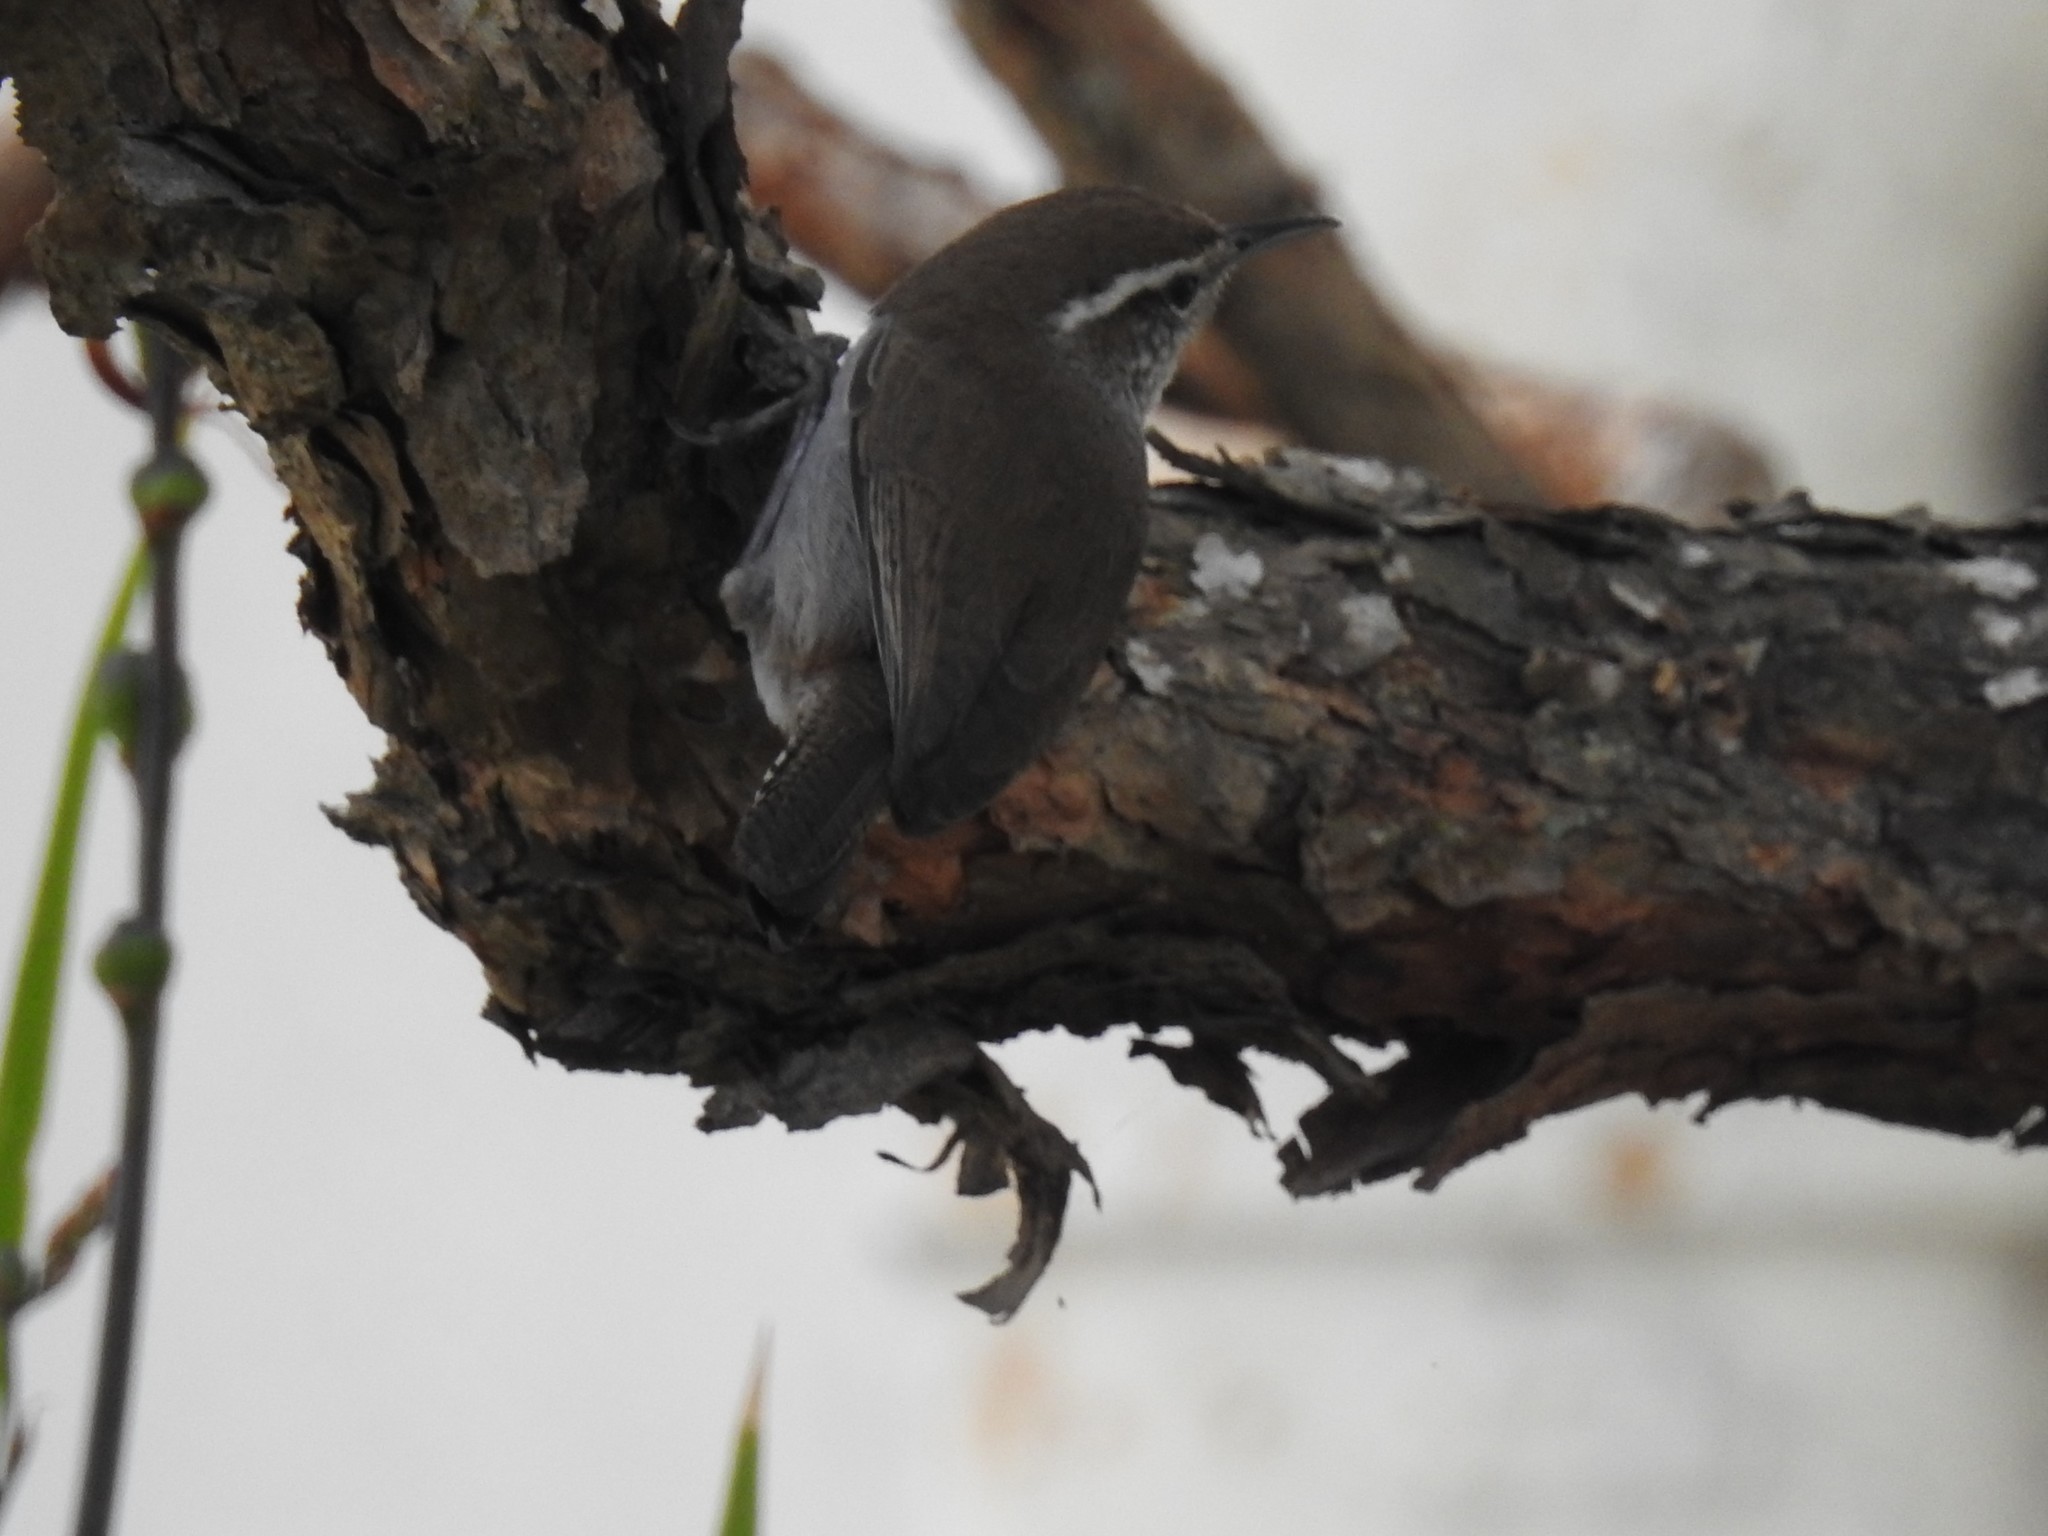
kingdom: Animalia
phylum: Chordata
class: Aves
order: Passeriformes
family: Troglodytidae
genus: Thryomanes
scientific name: Thryomanes bewickii
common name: Bewick's wren
